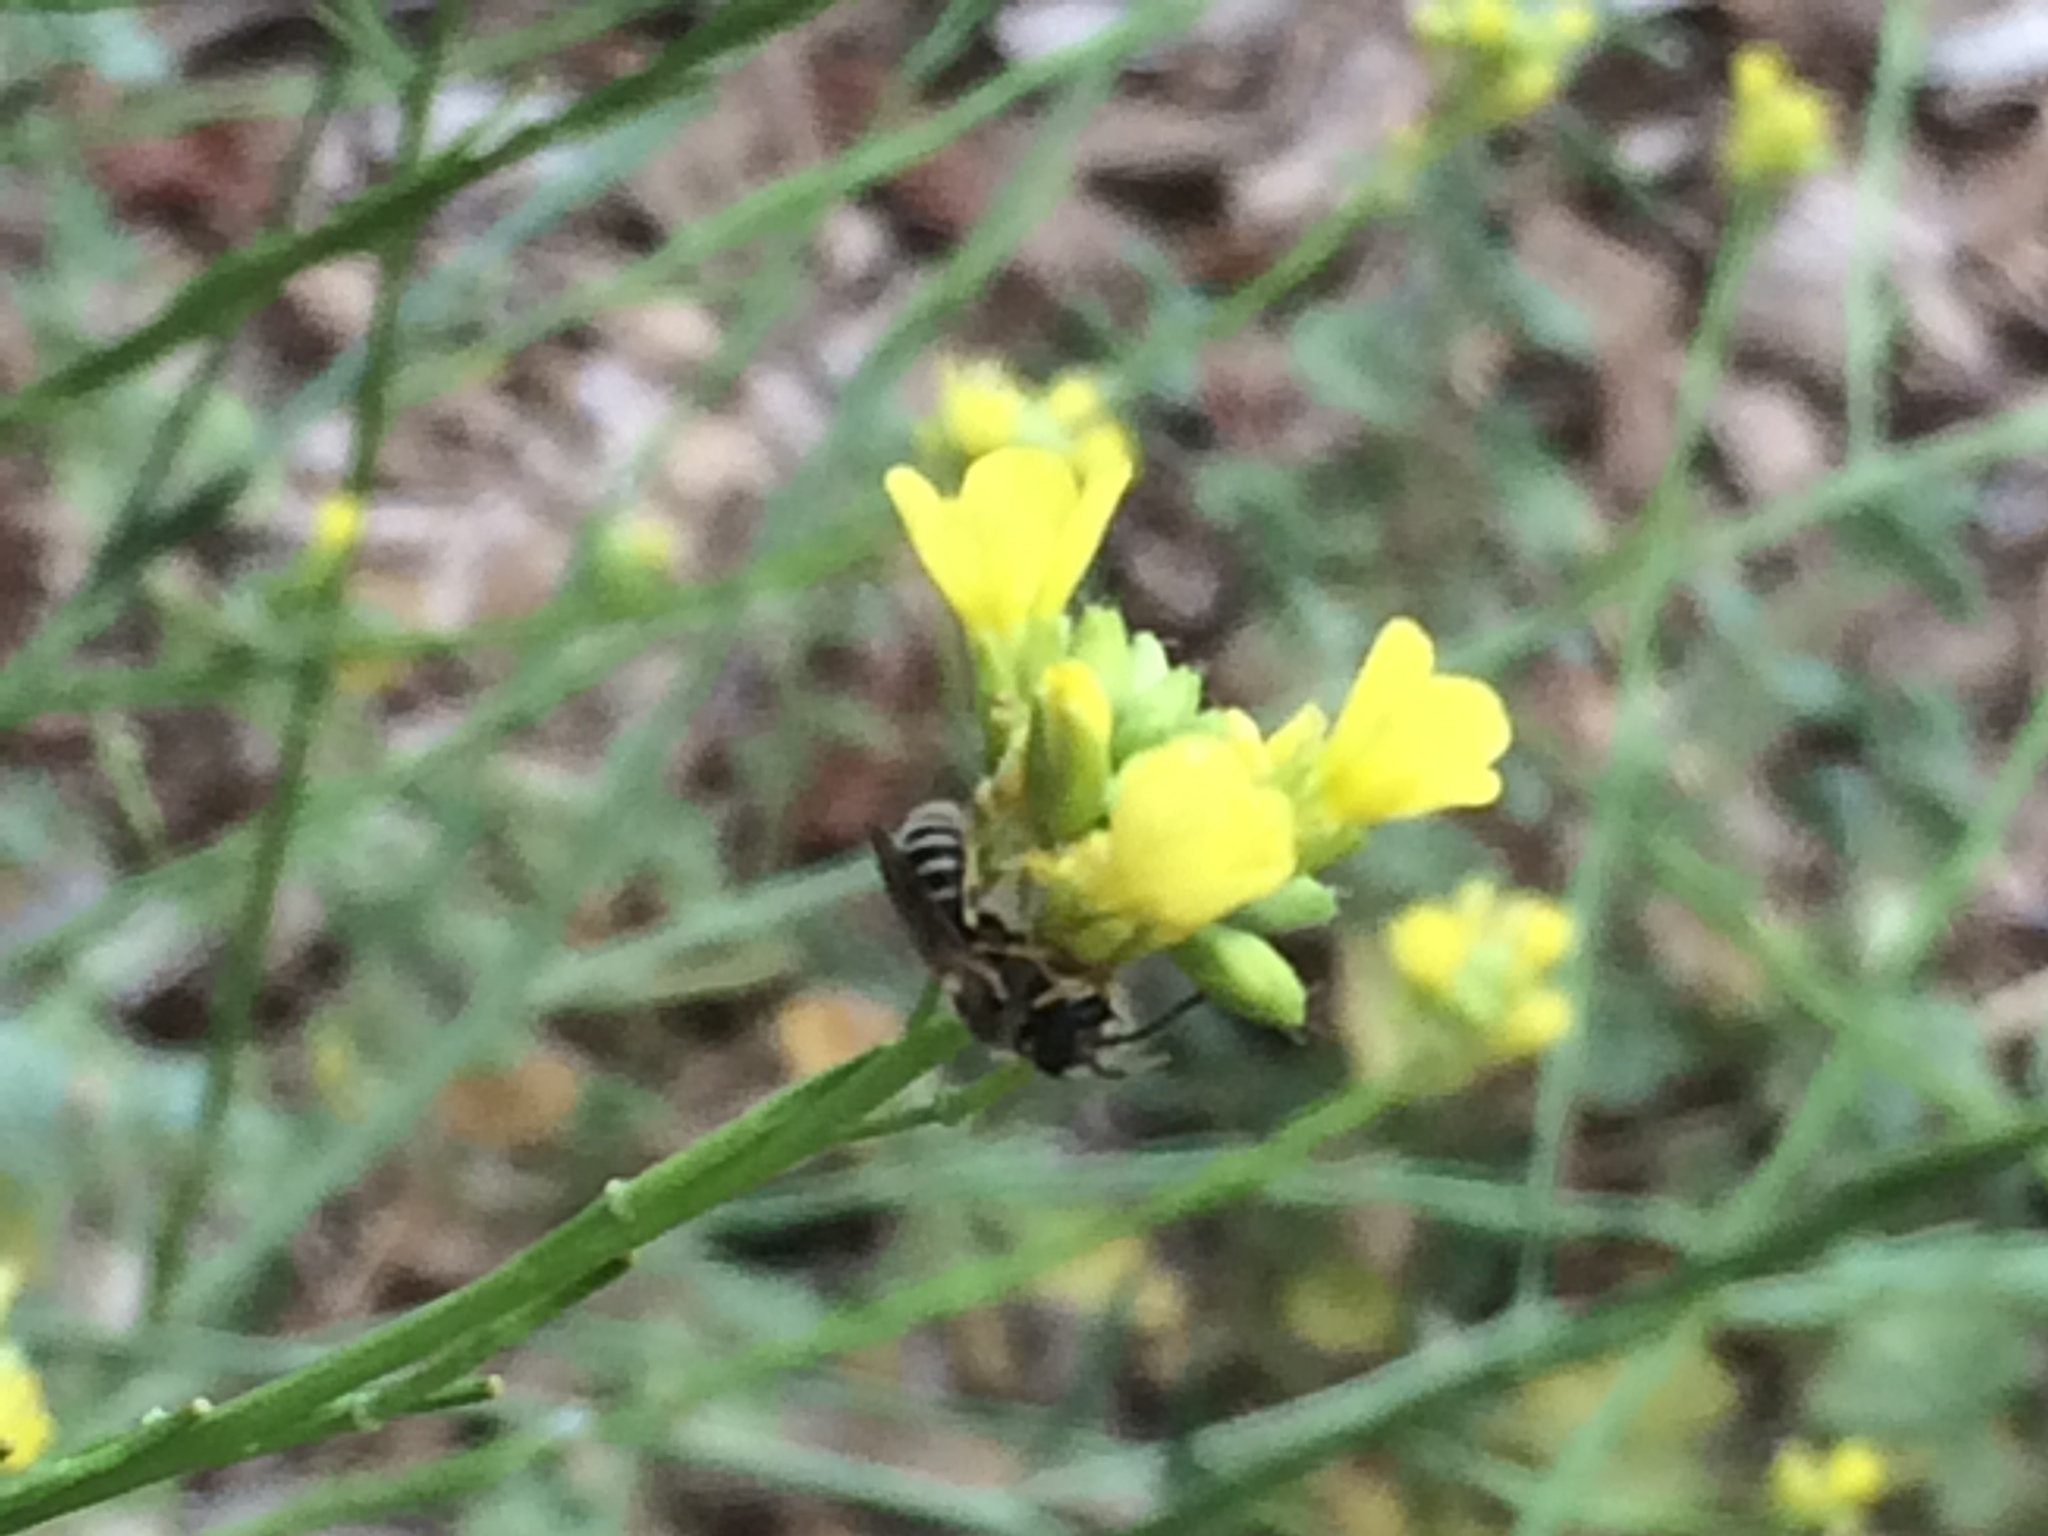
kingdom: Animalia
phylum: Arthropoda
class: Insecta
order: Hymenoptera
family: Halictidae
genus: Halictus
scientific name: Halictus ligatus
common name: Ligated furrow bee
